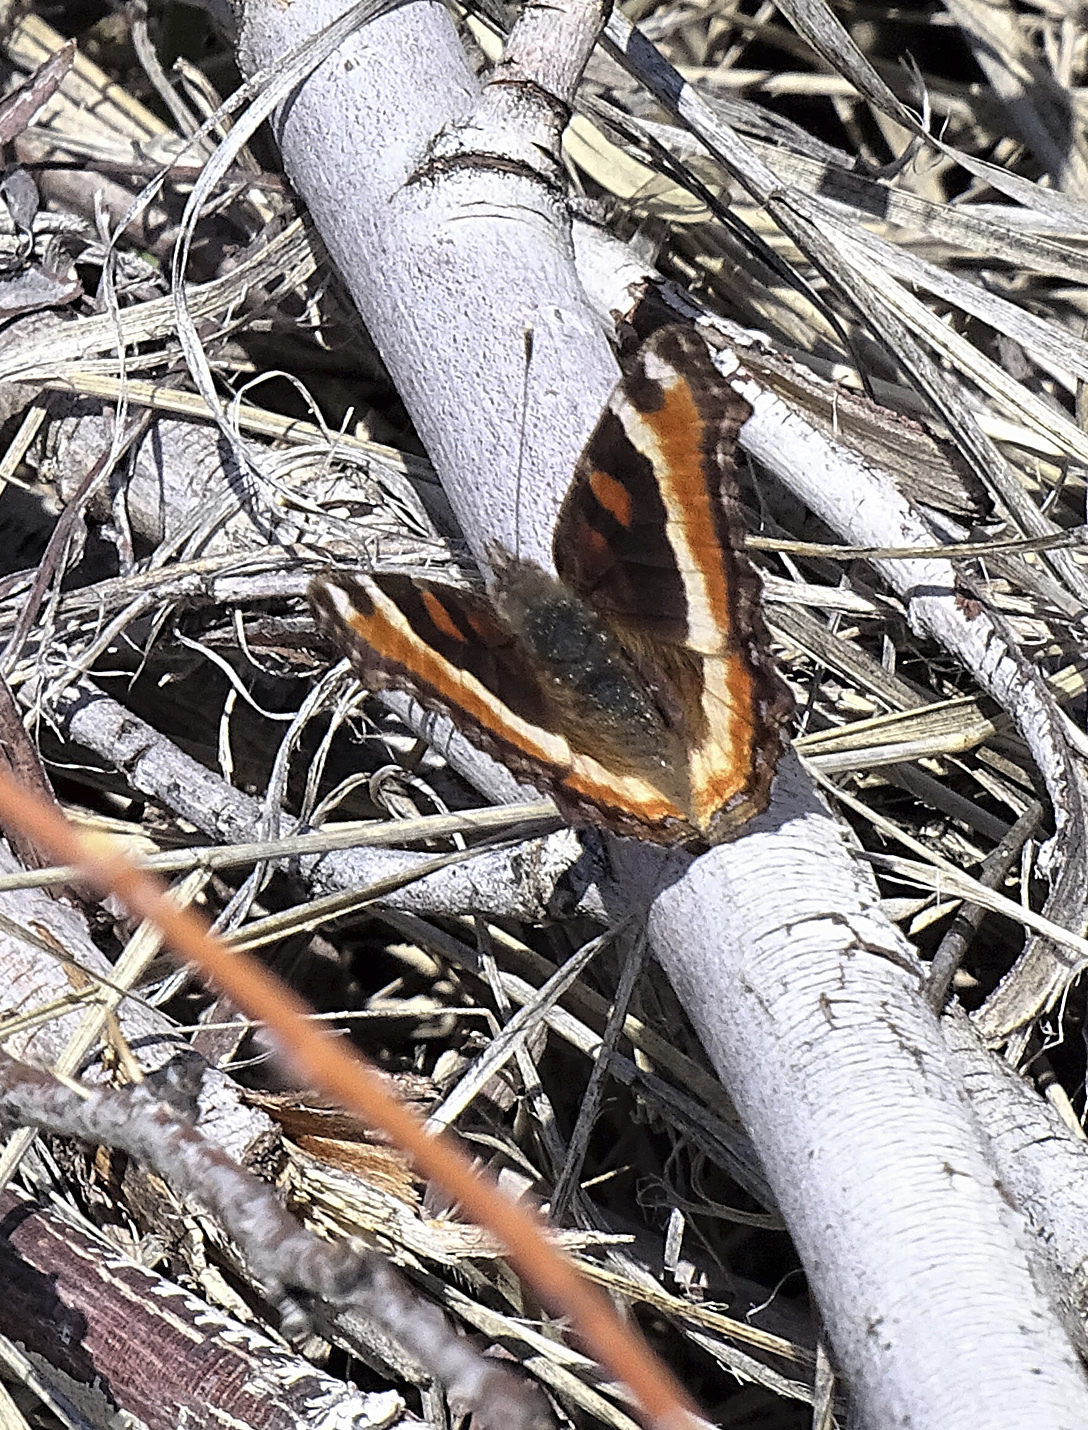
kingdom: Animalia
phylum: Arthropoda
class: Insecta
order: Lepidoptera
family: Nymphalidae
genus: Aglais
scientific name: Aglais milberti
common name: Milbert's tortoiseshell
